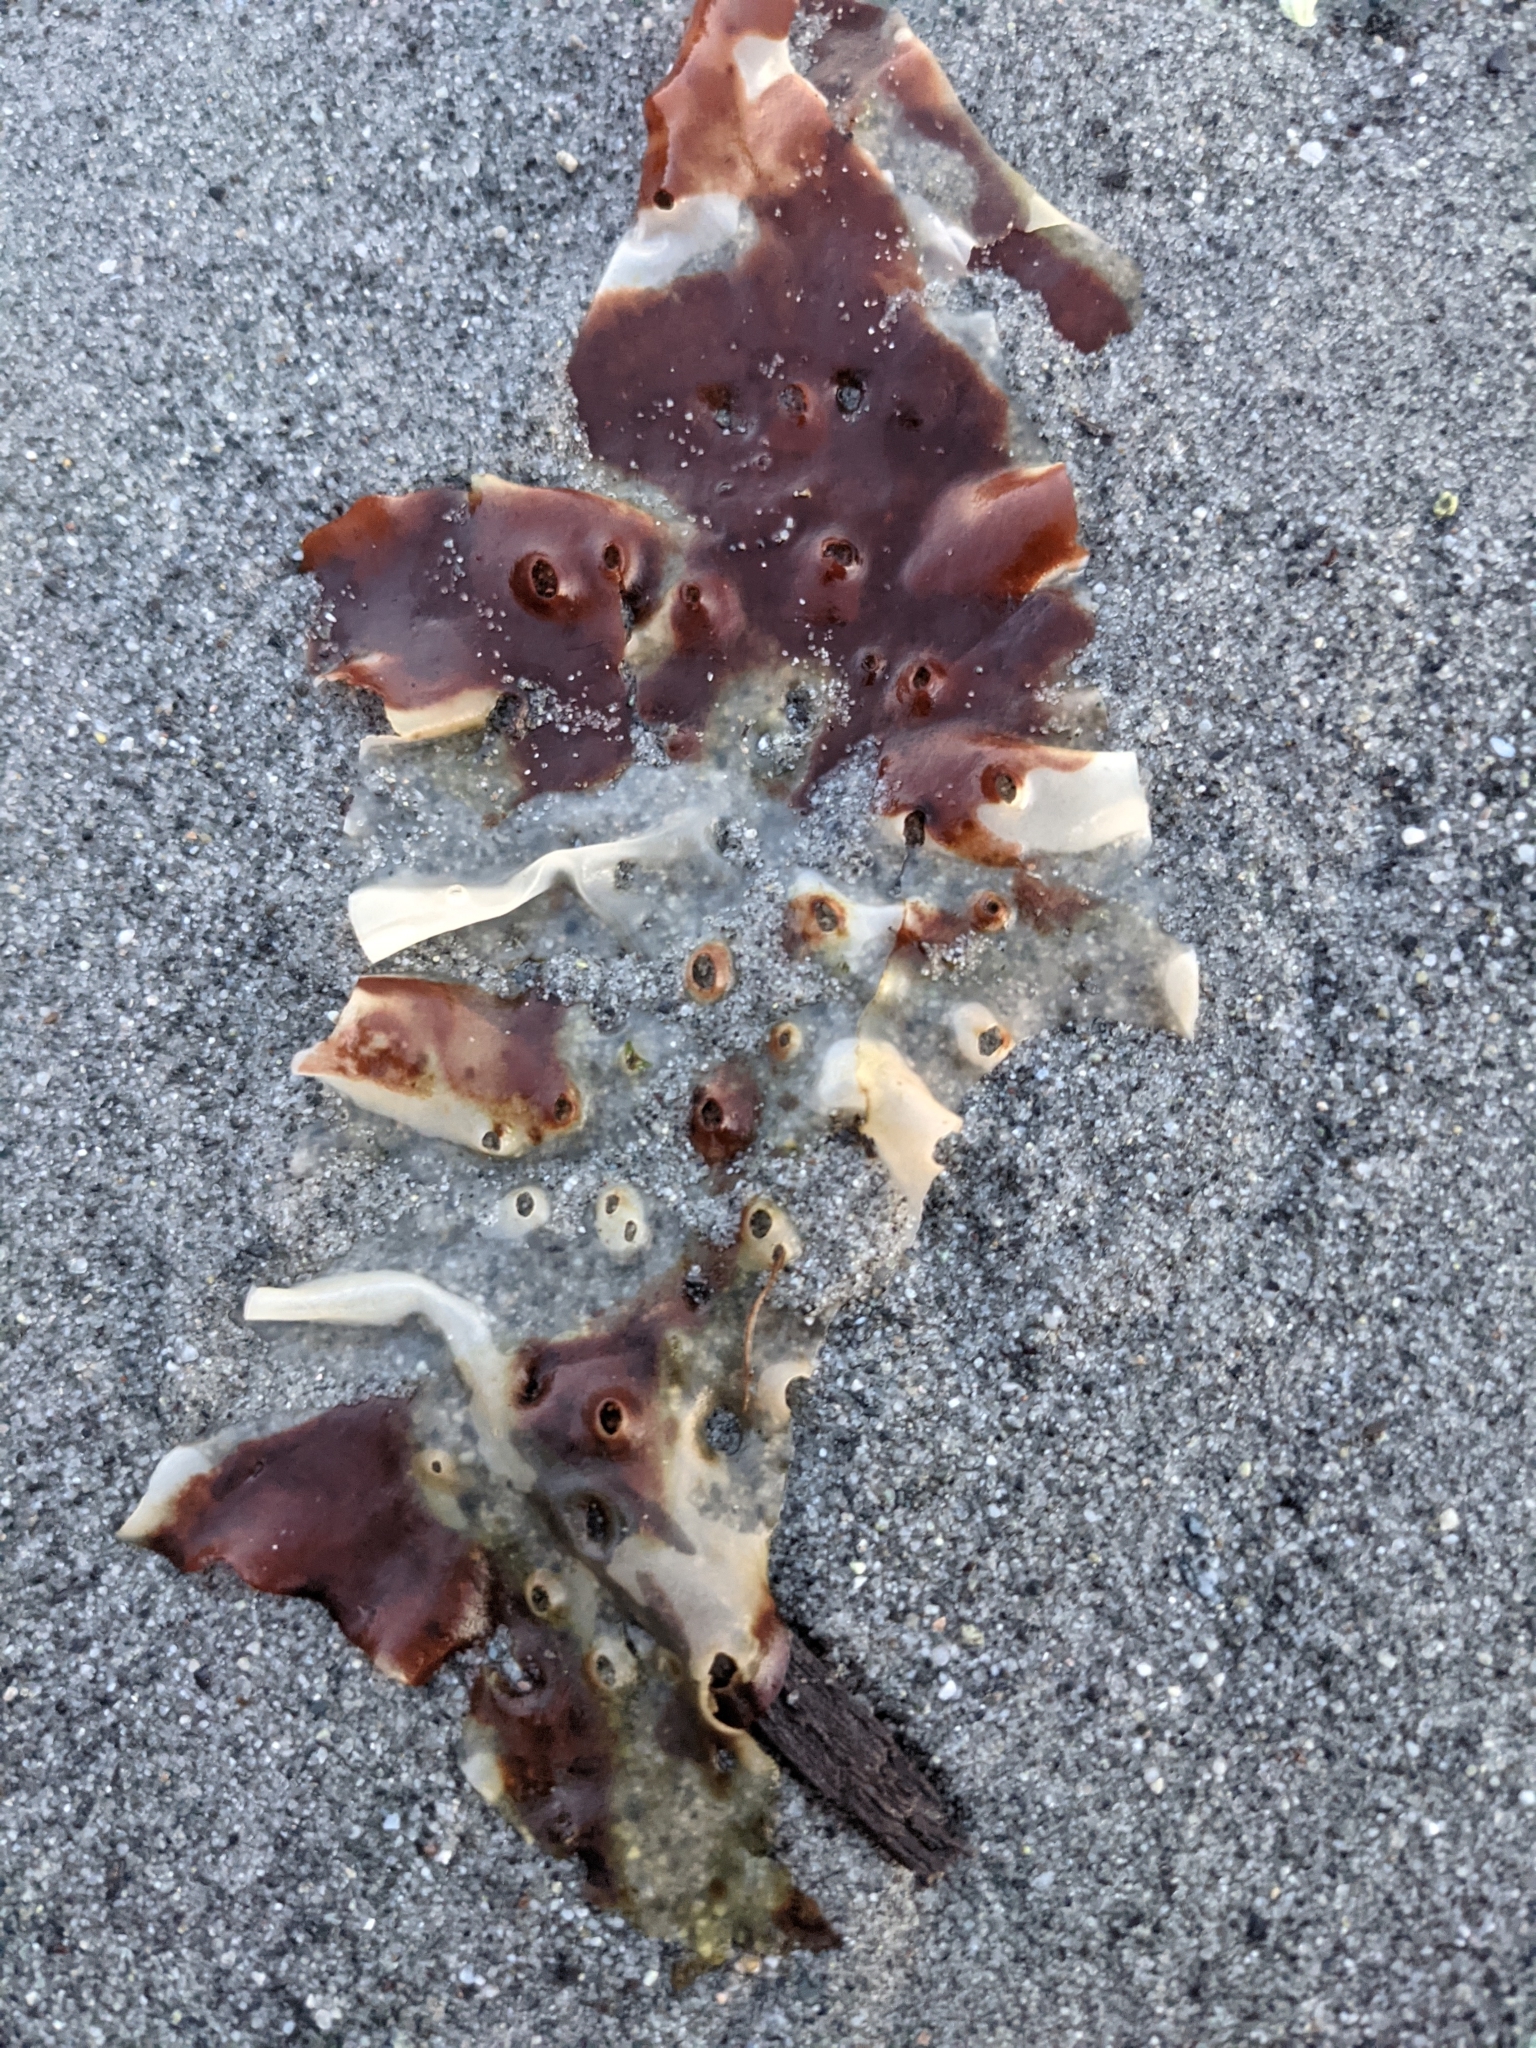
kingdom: Plantae
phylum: Rhodophyta
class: Florideophyceae
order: Rhodymeniales
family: Rhodymeniaceae
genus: Sparlingia
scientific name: Sparlingia pertusa
